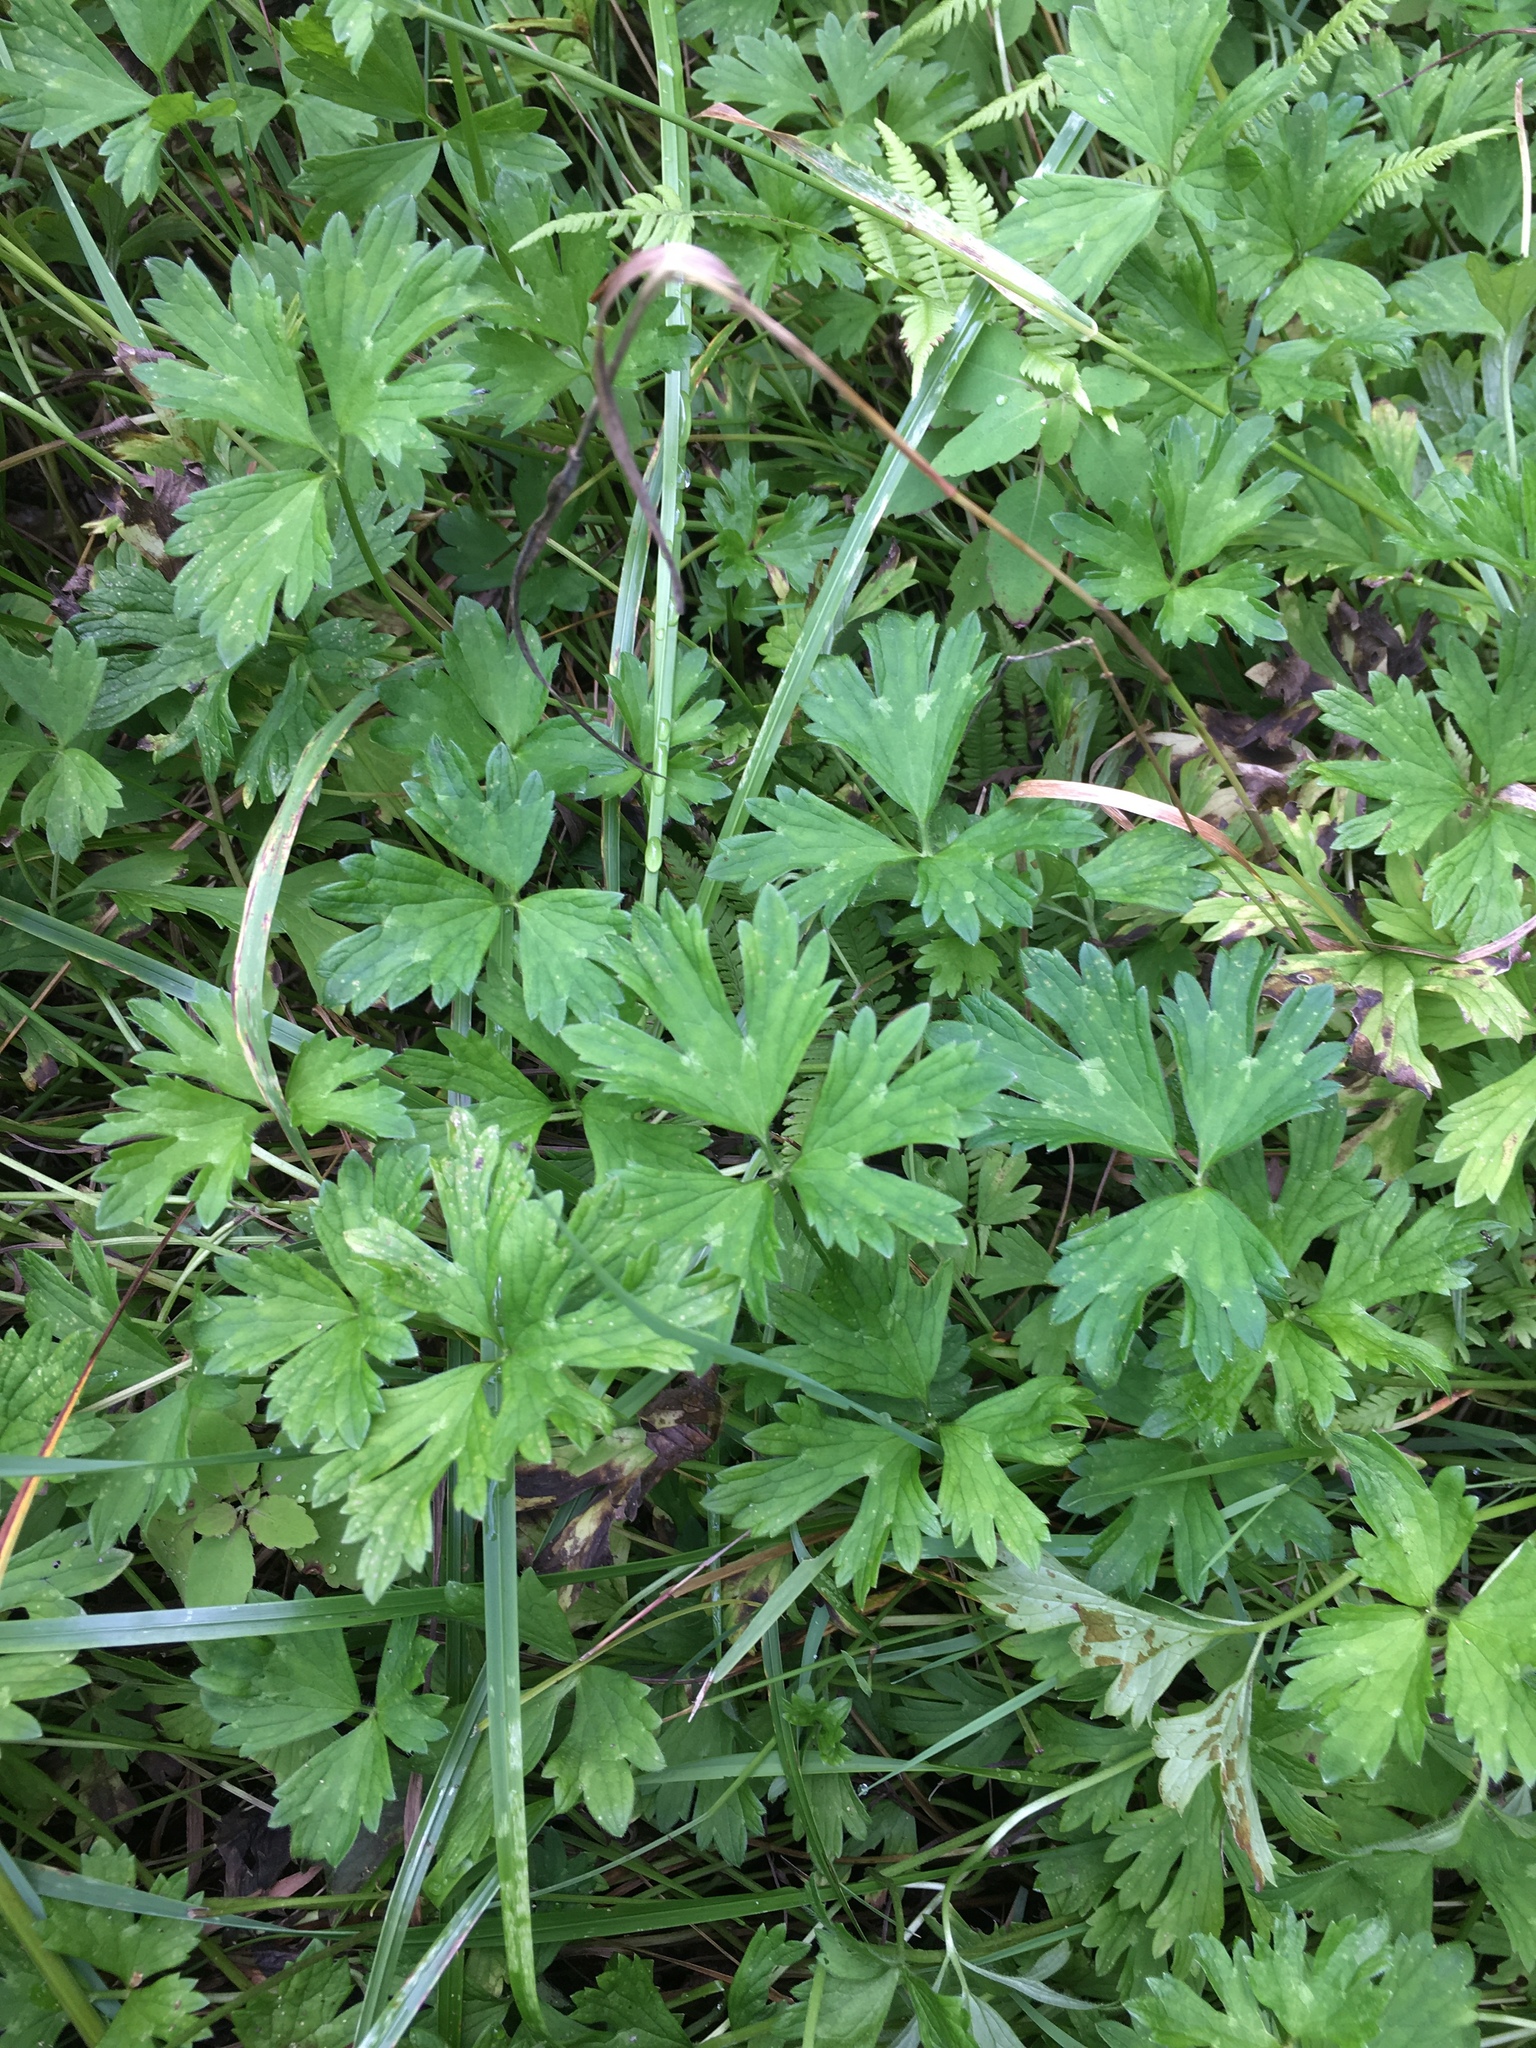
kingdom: Plantae
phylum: Tracheophyta
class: Magnoliopsida
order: Ranunculales
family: Ranunculaceae
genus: Ranunculus
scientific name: Ranunculus repens
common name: Creeping buttercup
